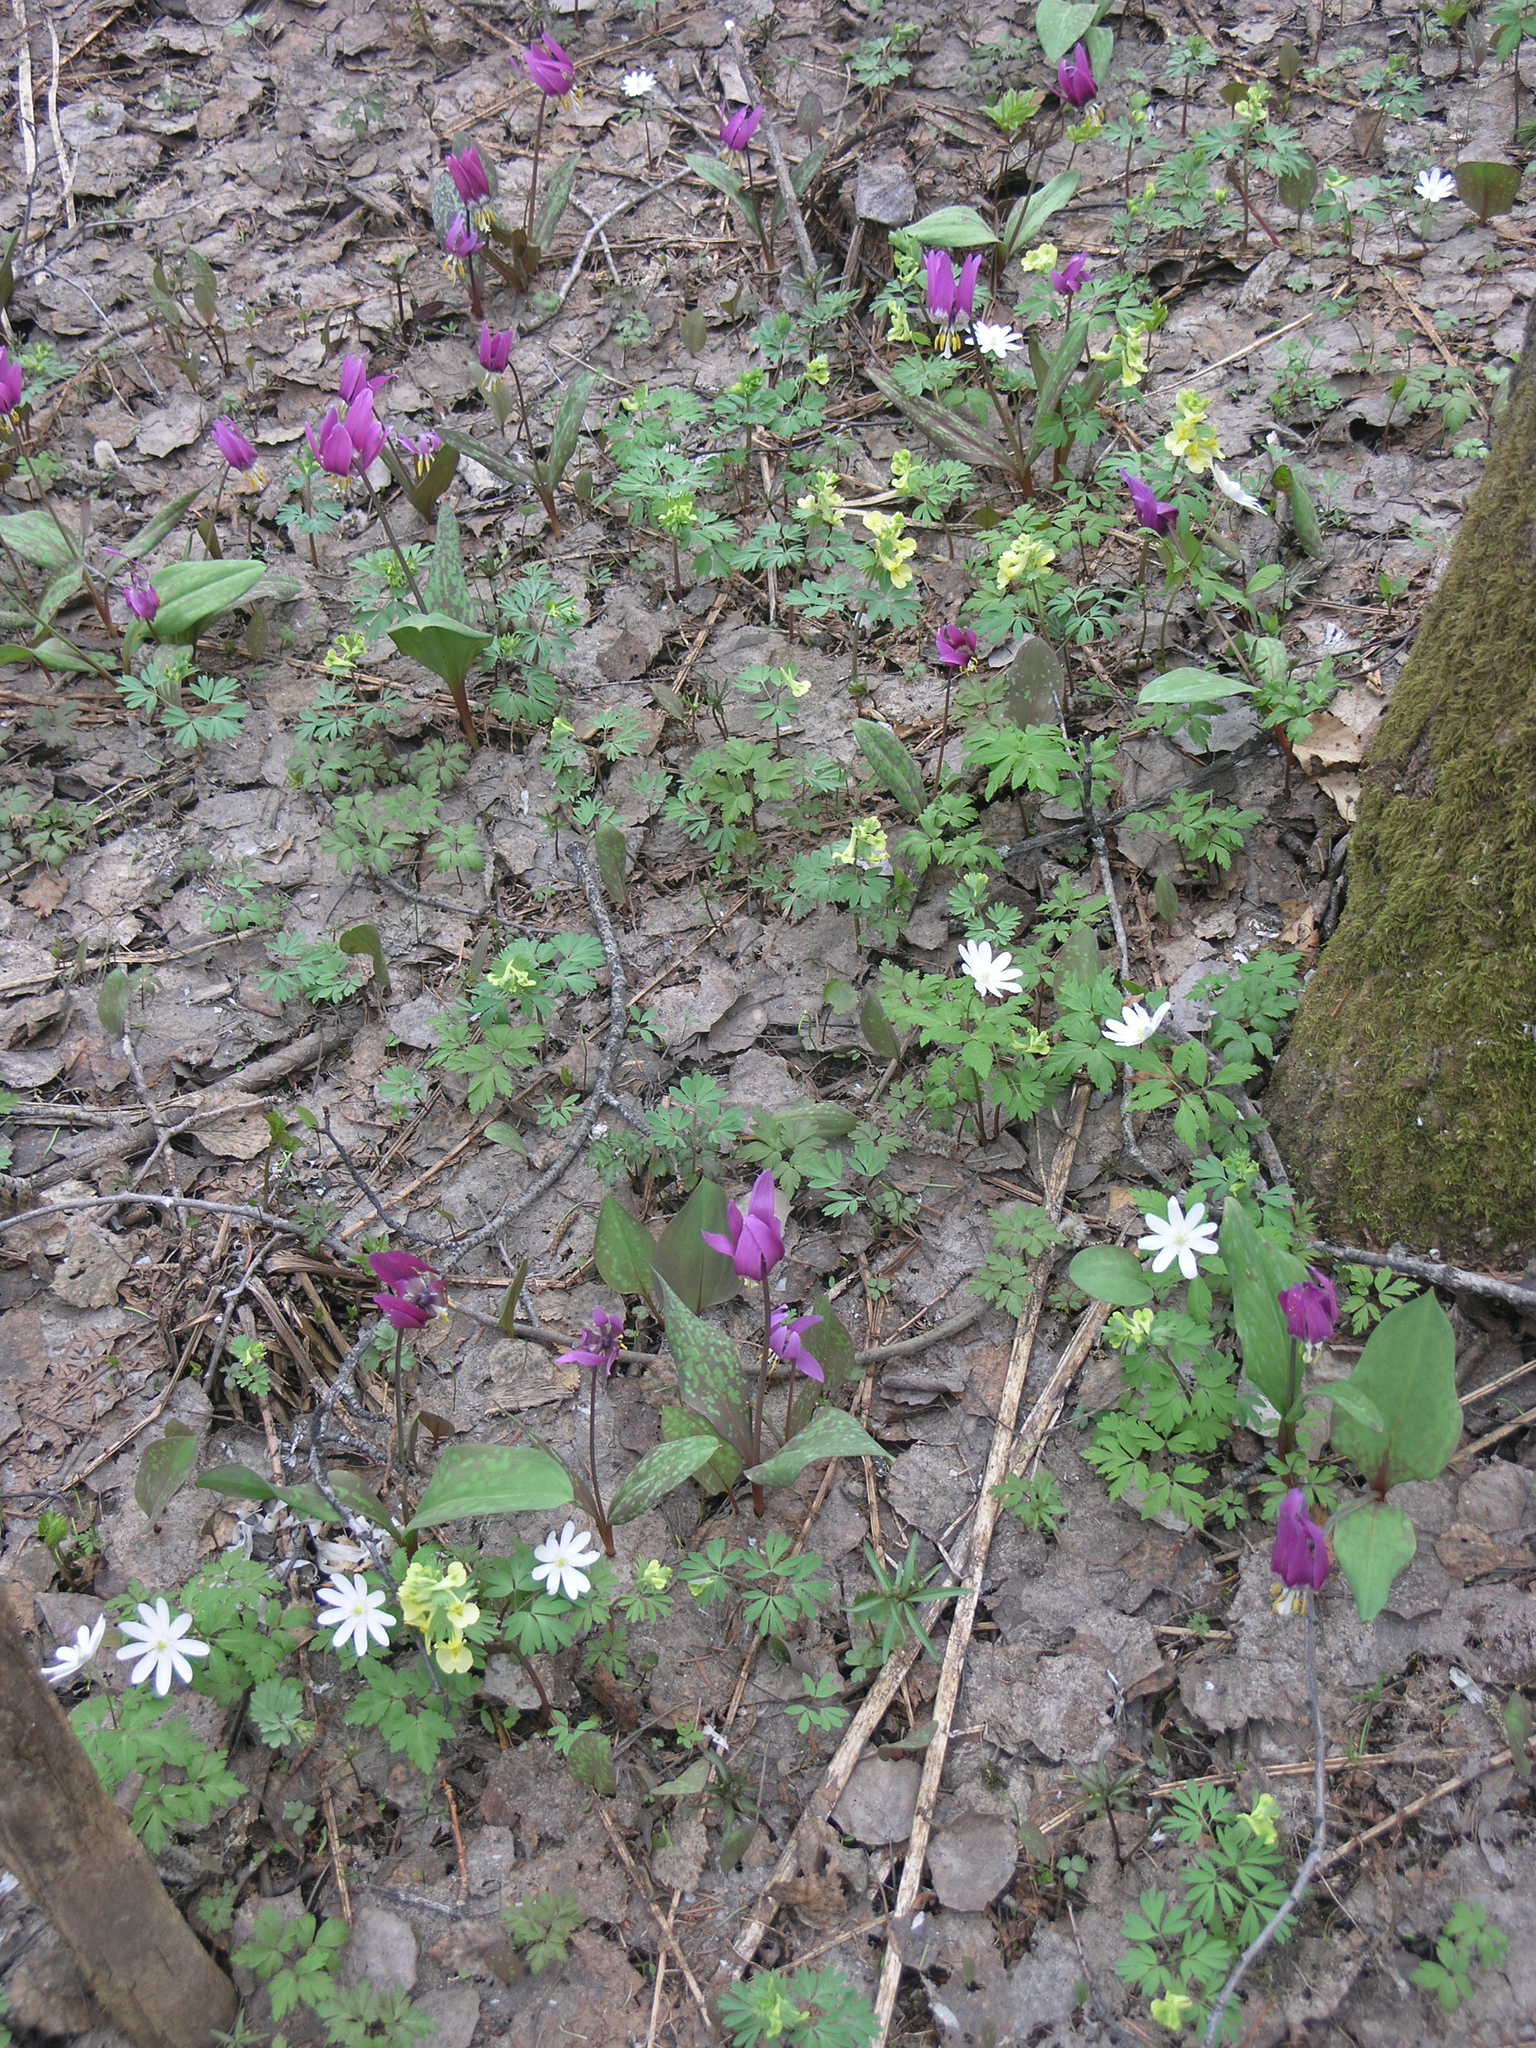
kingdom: Plantae
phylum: Tracheophyta
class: Liliopsida
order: Liliales
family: Liliaceae
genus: Erythronium
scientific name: Erythronium sibiricum
